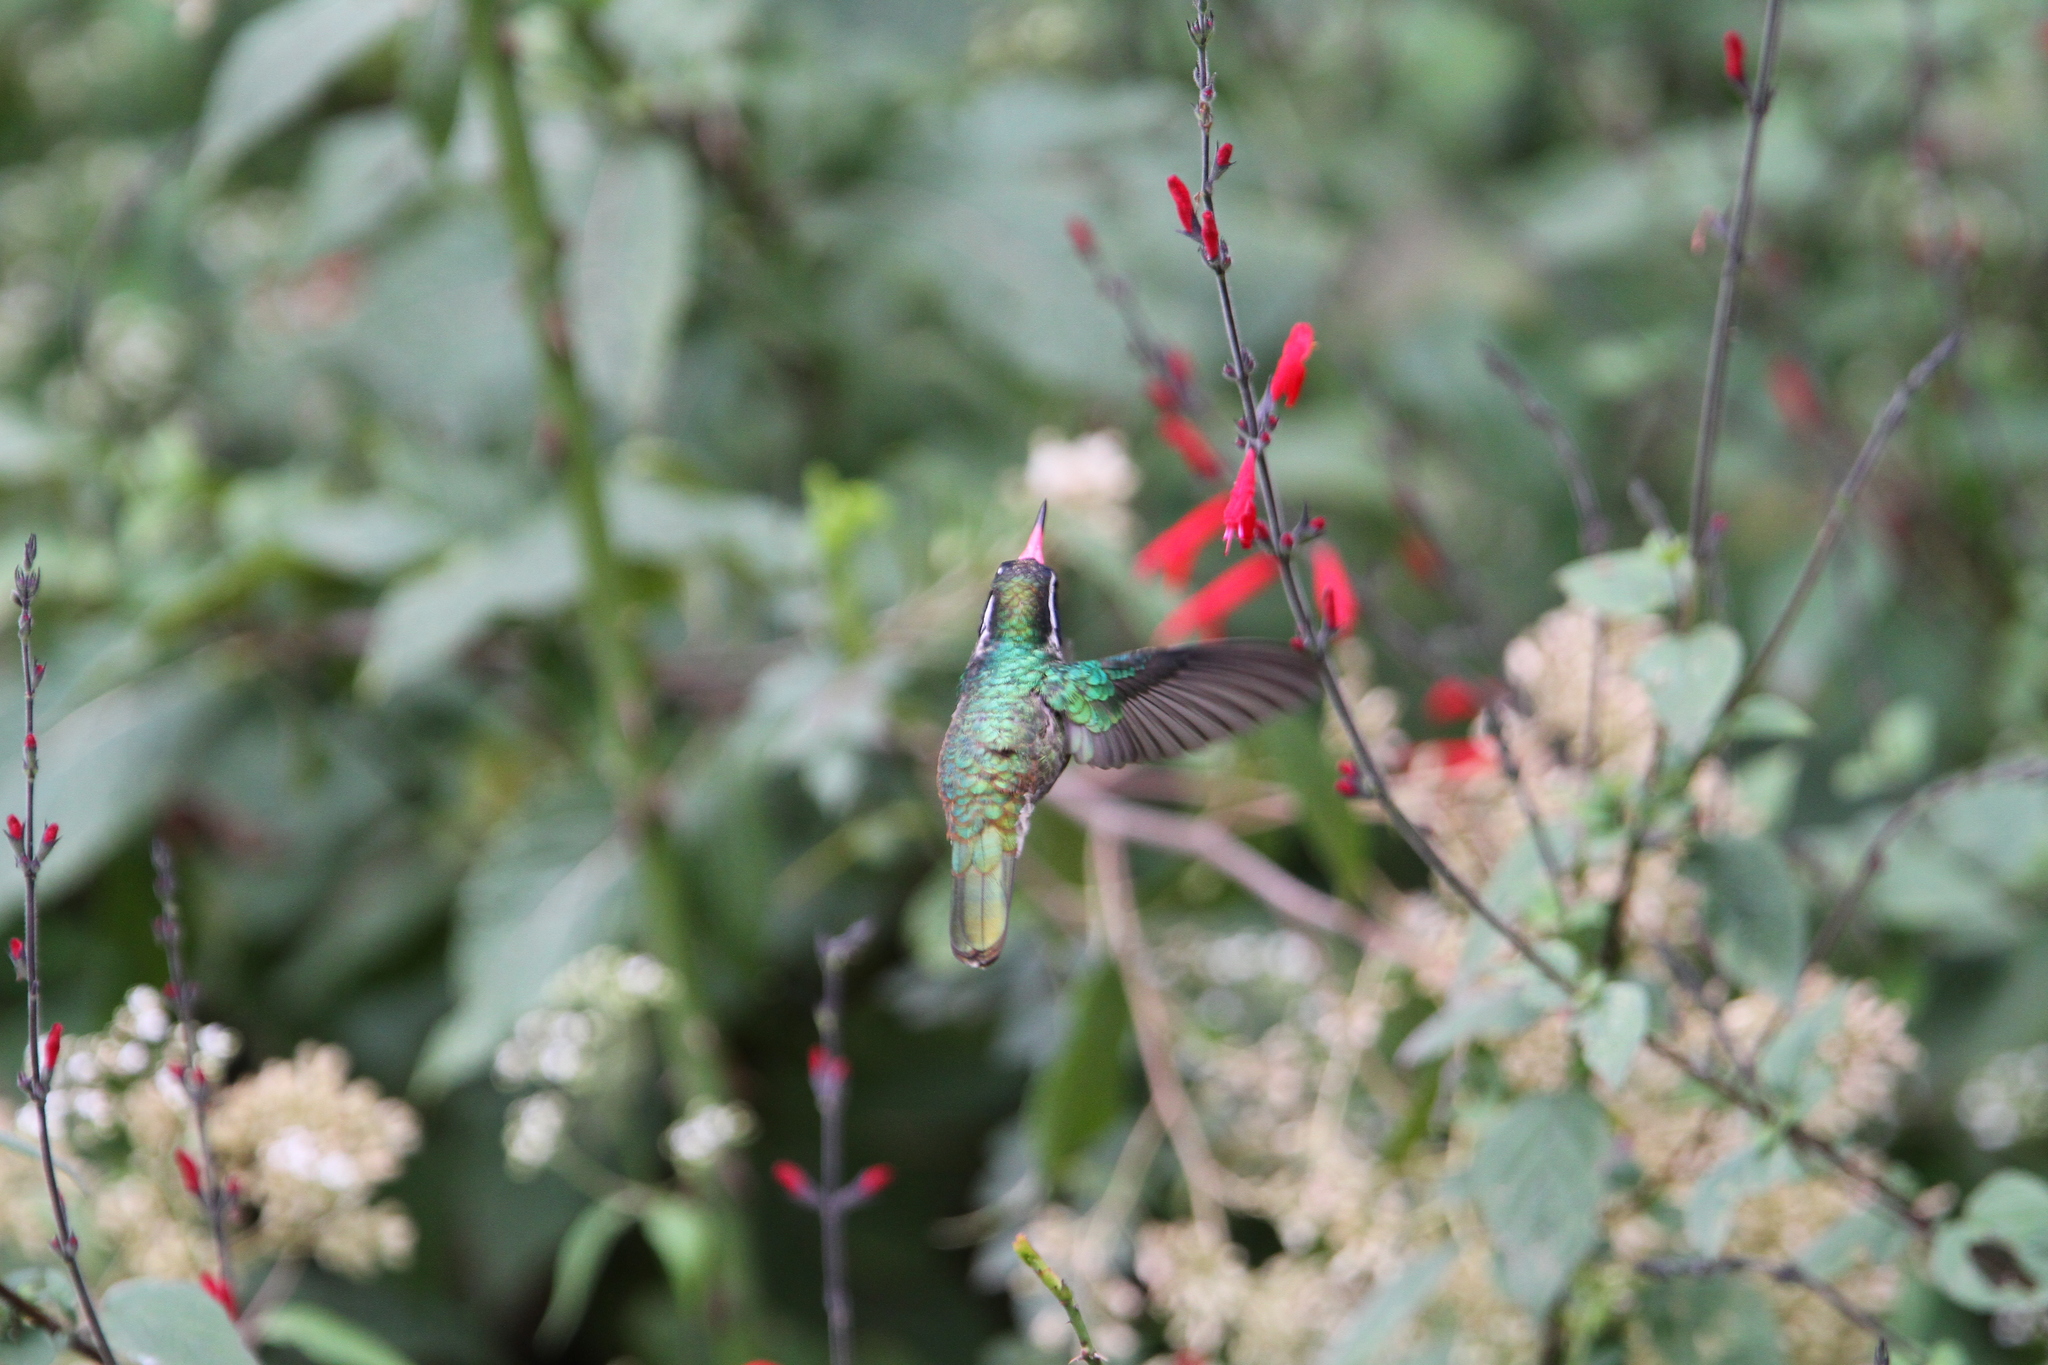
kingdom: Animalia
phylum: Chordata
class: Aves
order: Apodiformes
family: Trochilidae
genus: Basilinna
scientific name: Basilinna leucotis
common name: White-eared hummingbird
